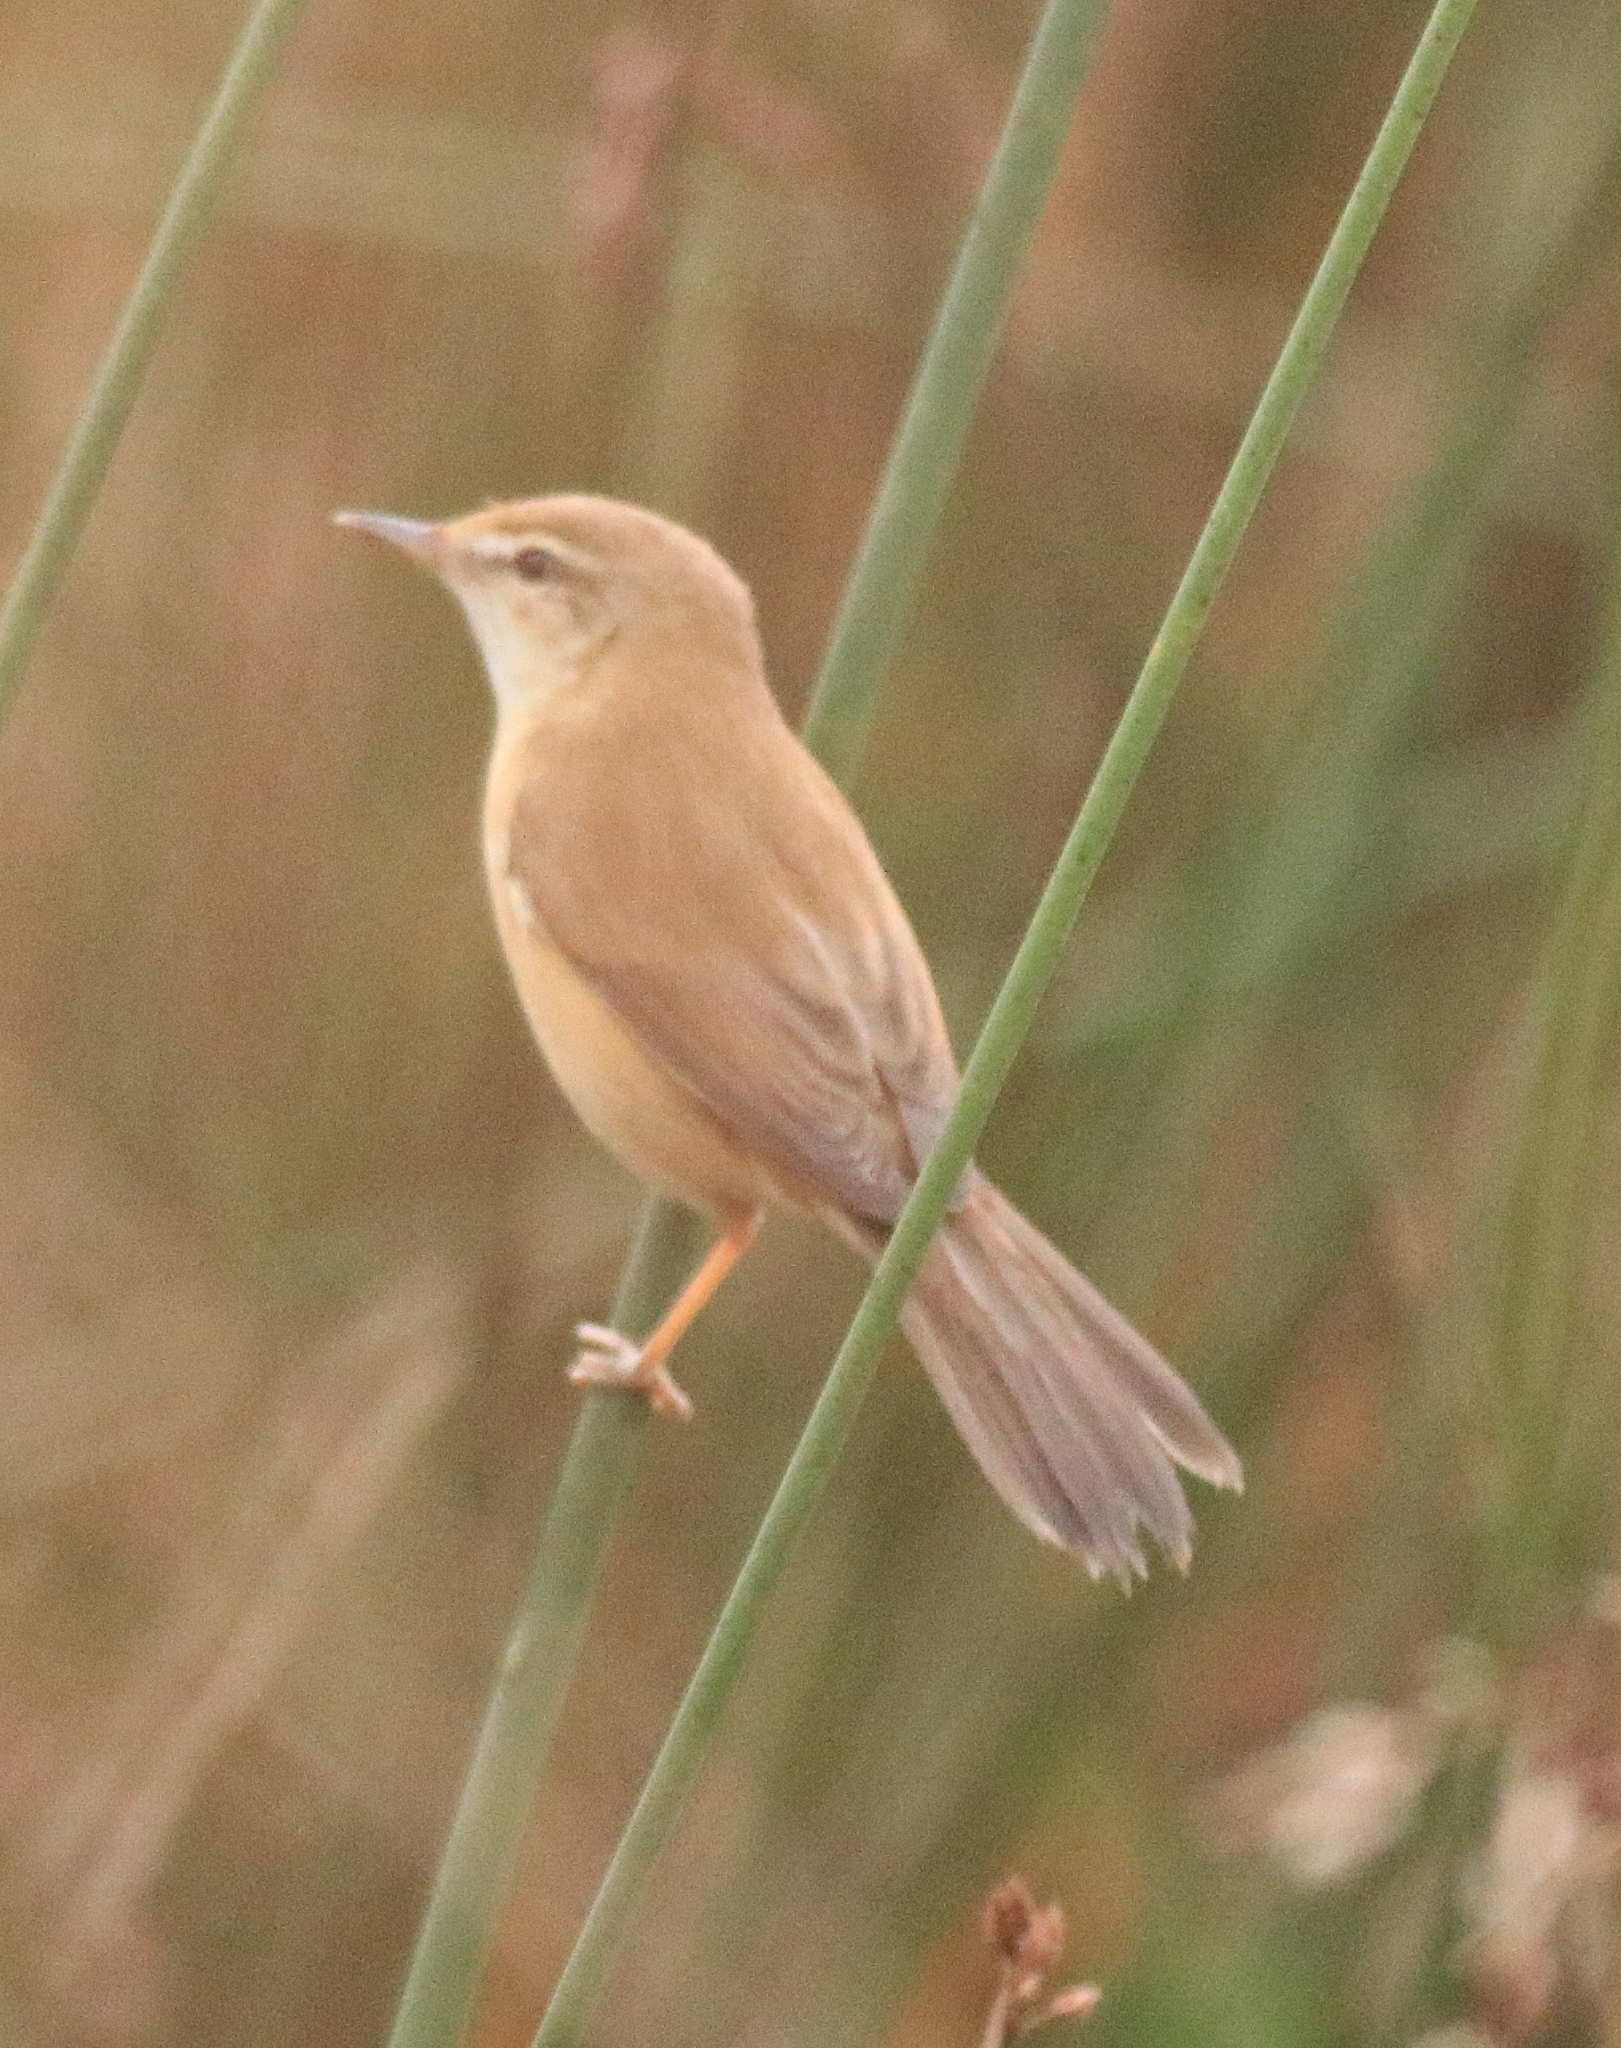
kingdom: Animalia
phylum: Chordata
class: Aves
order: Passeriformes
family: Acrocephalidae
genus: Acrocephalus
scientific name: Acrocephalus agricola
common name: Paddyfield warbler
